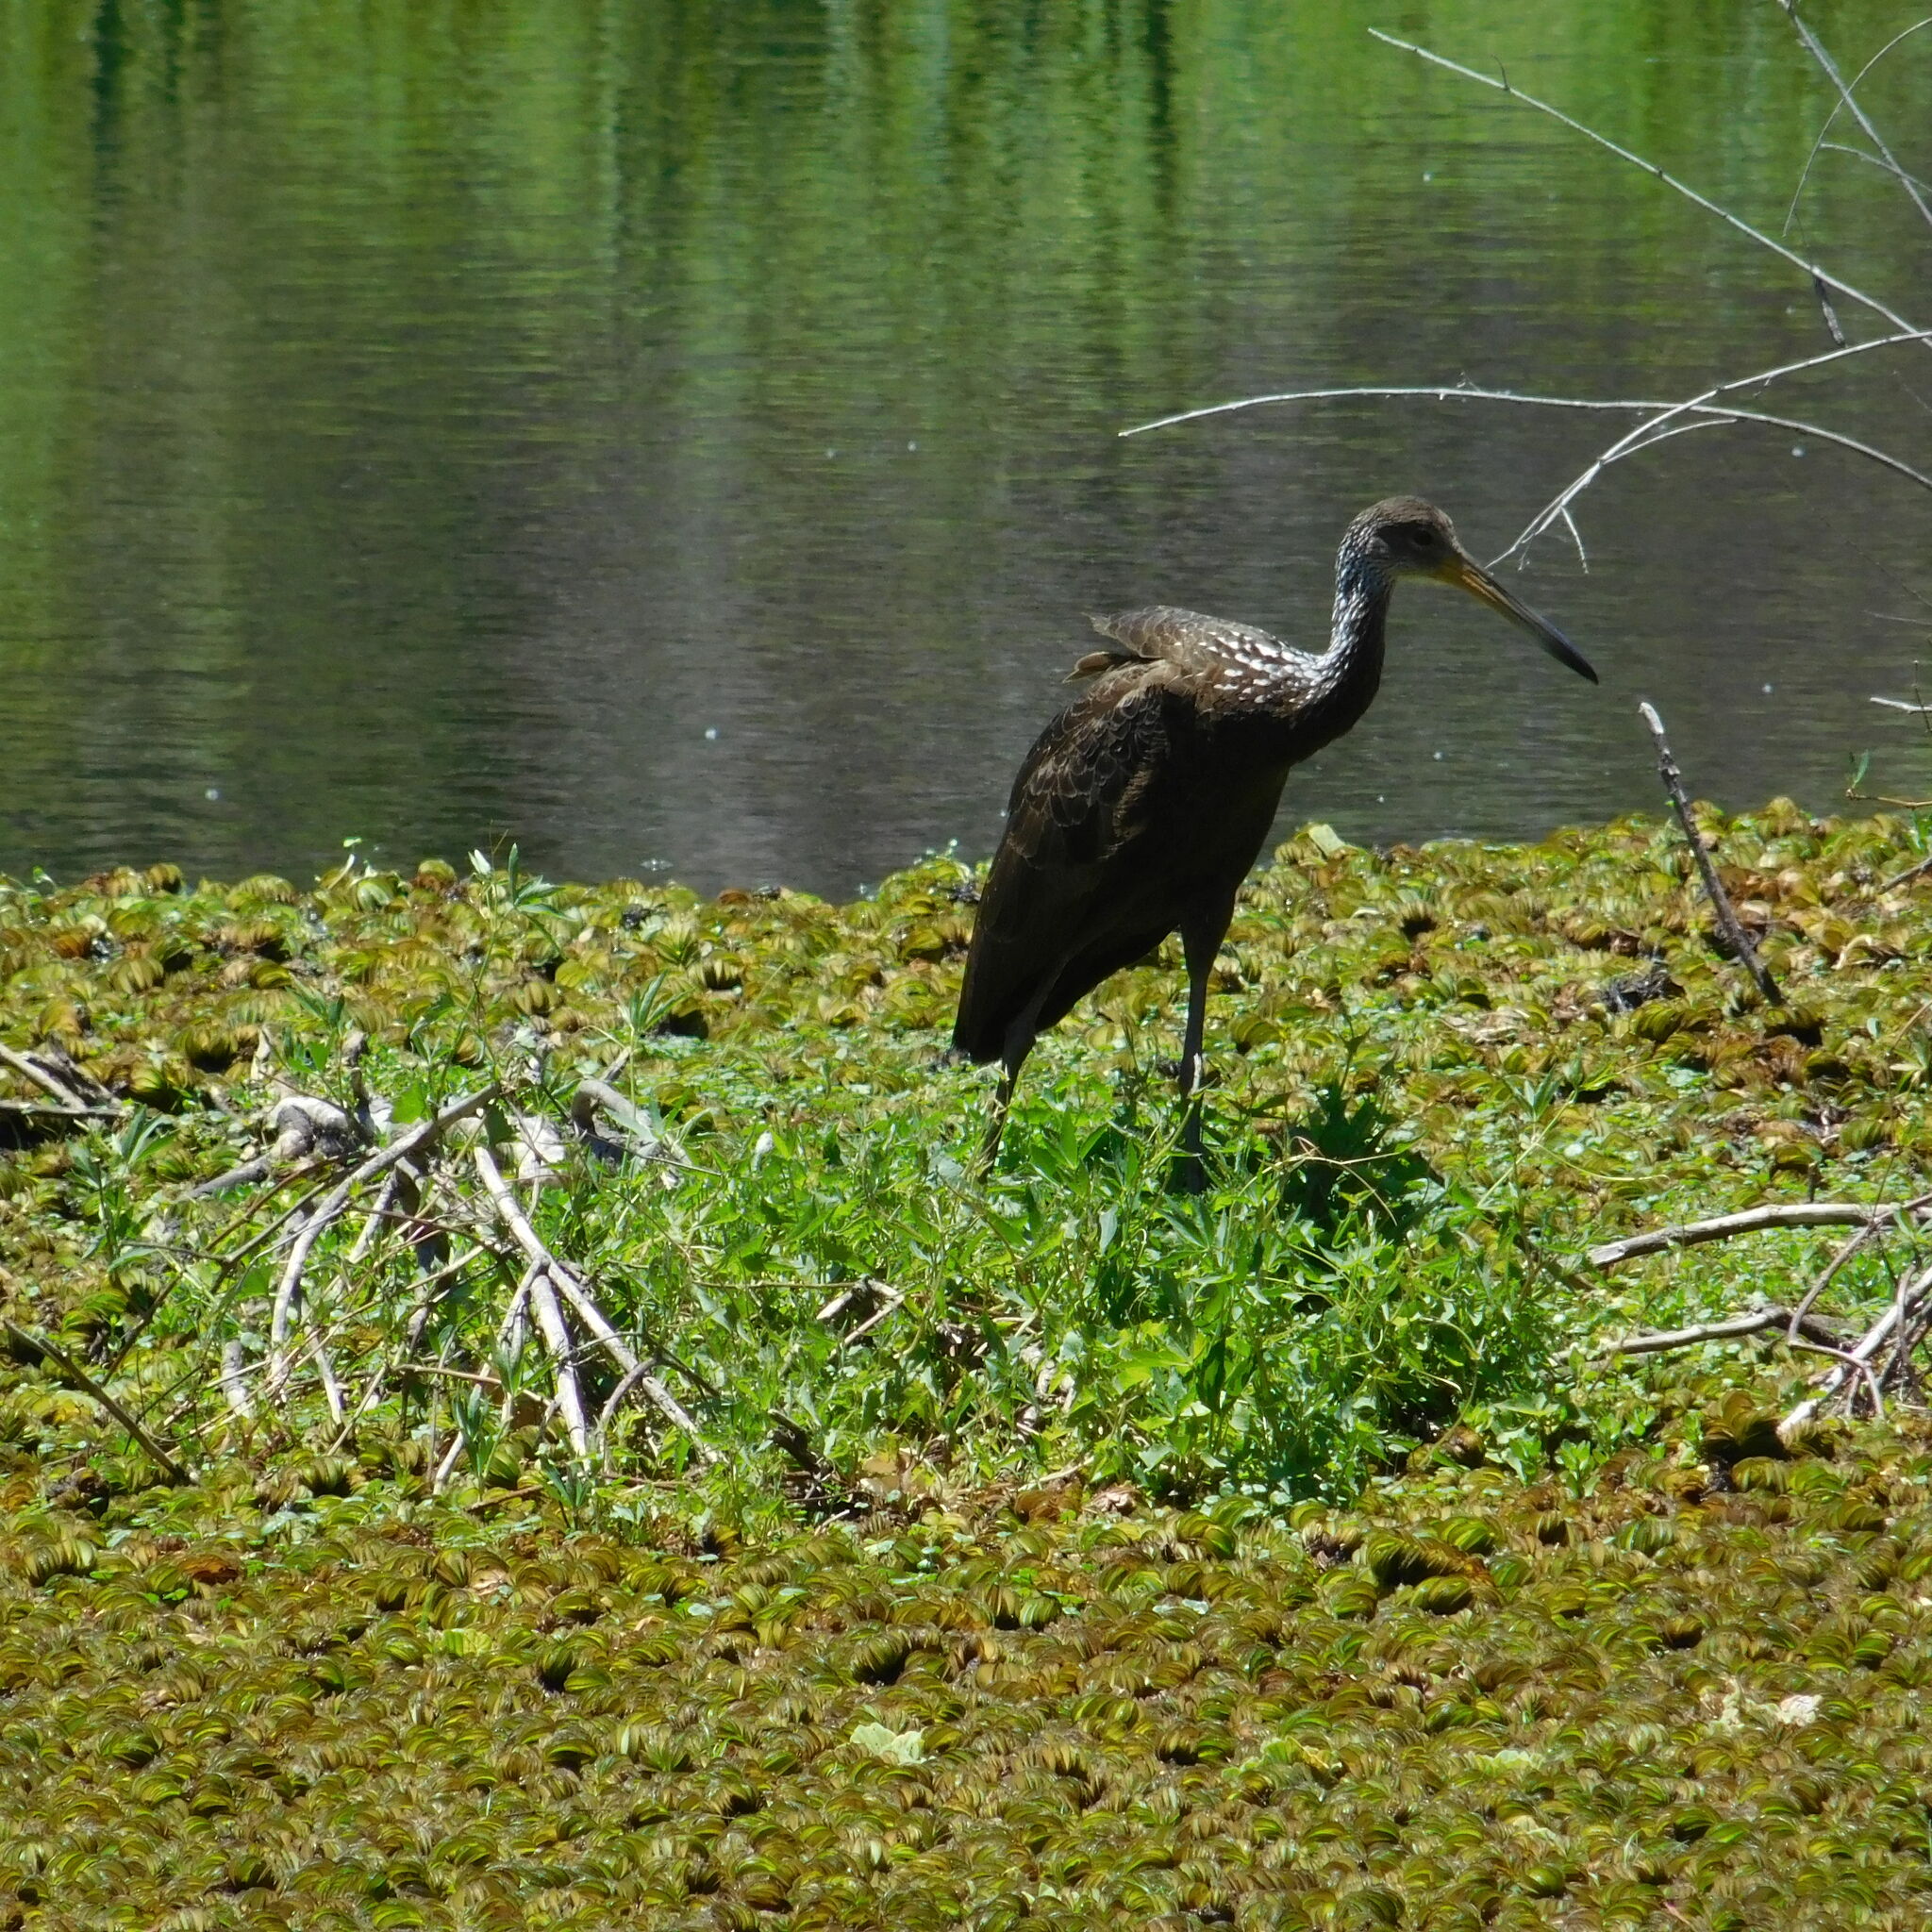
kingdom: Animalia
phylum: Chordata
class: Aves
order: Gruiformes
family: Aramidae
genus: Aramus
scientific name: Aramus guarauna
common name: Limpkin
